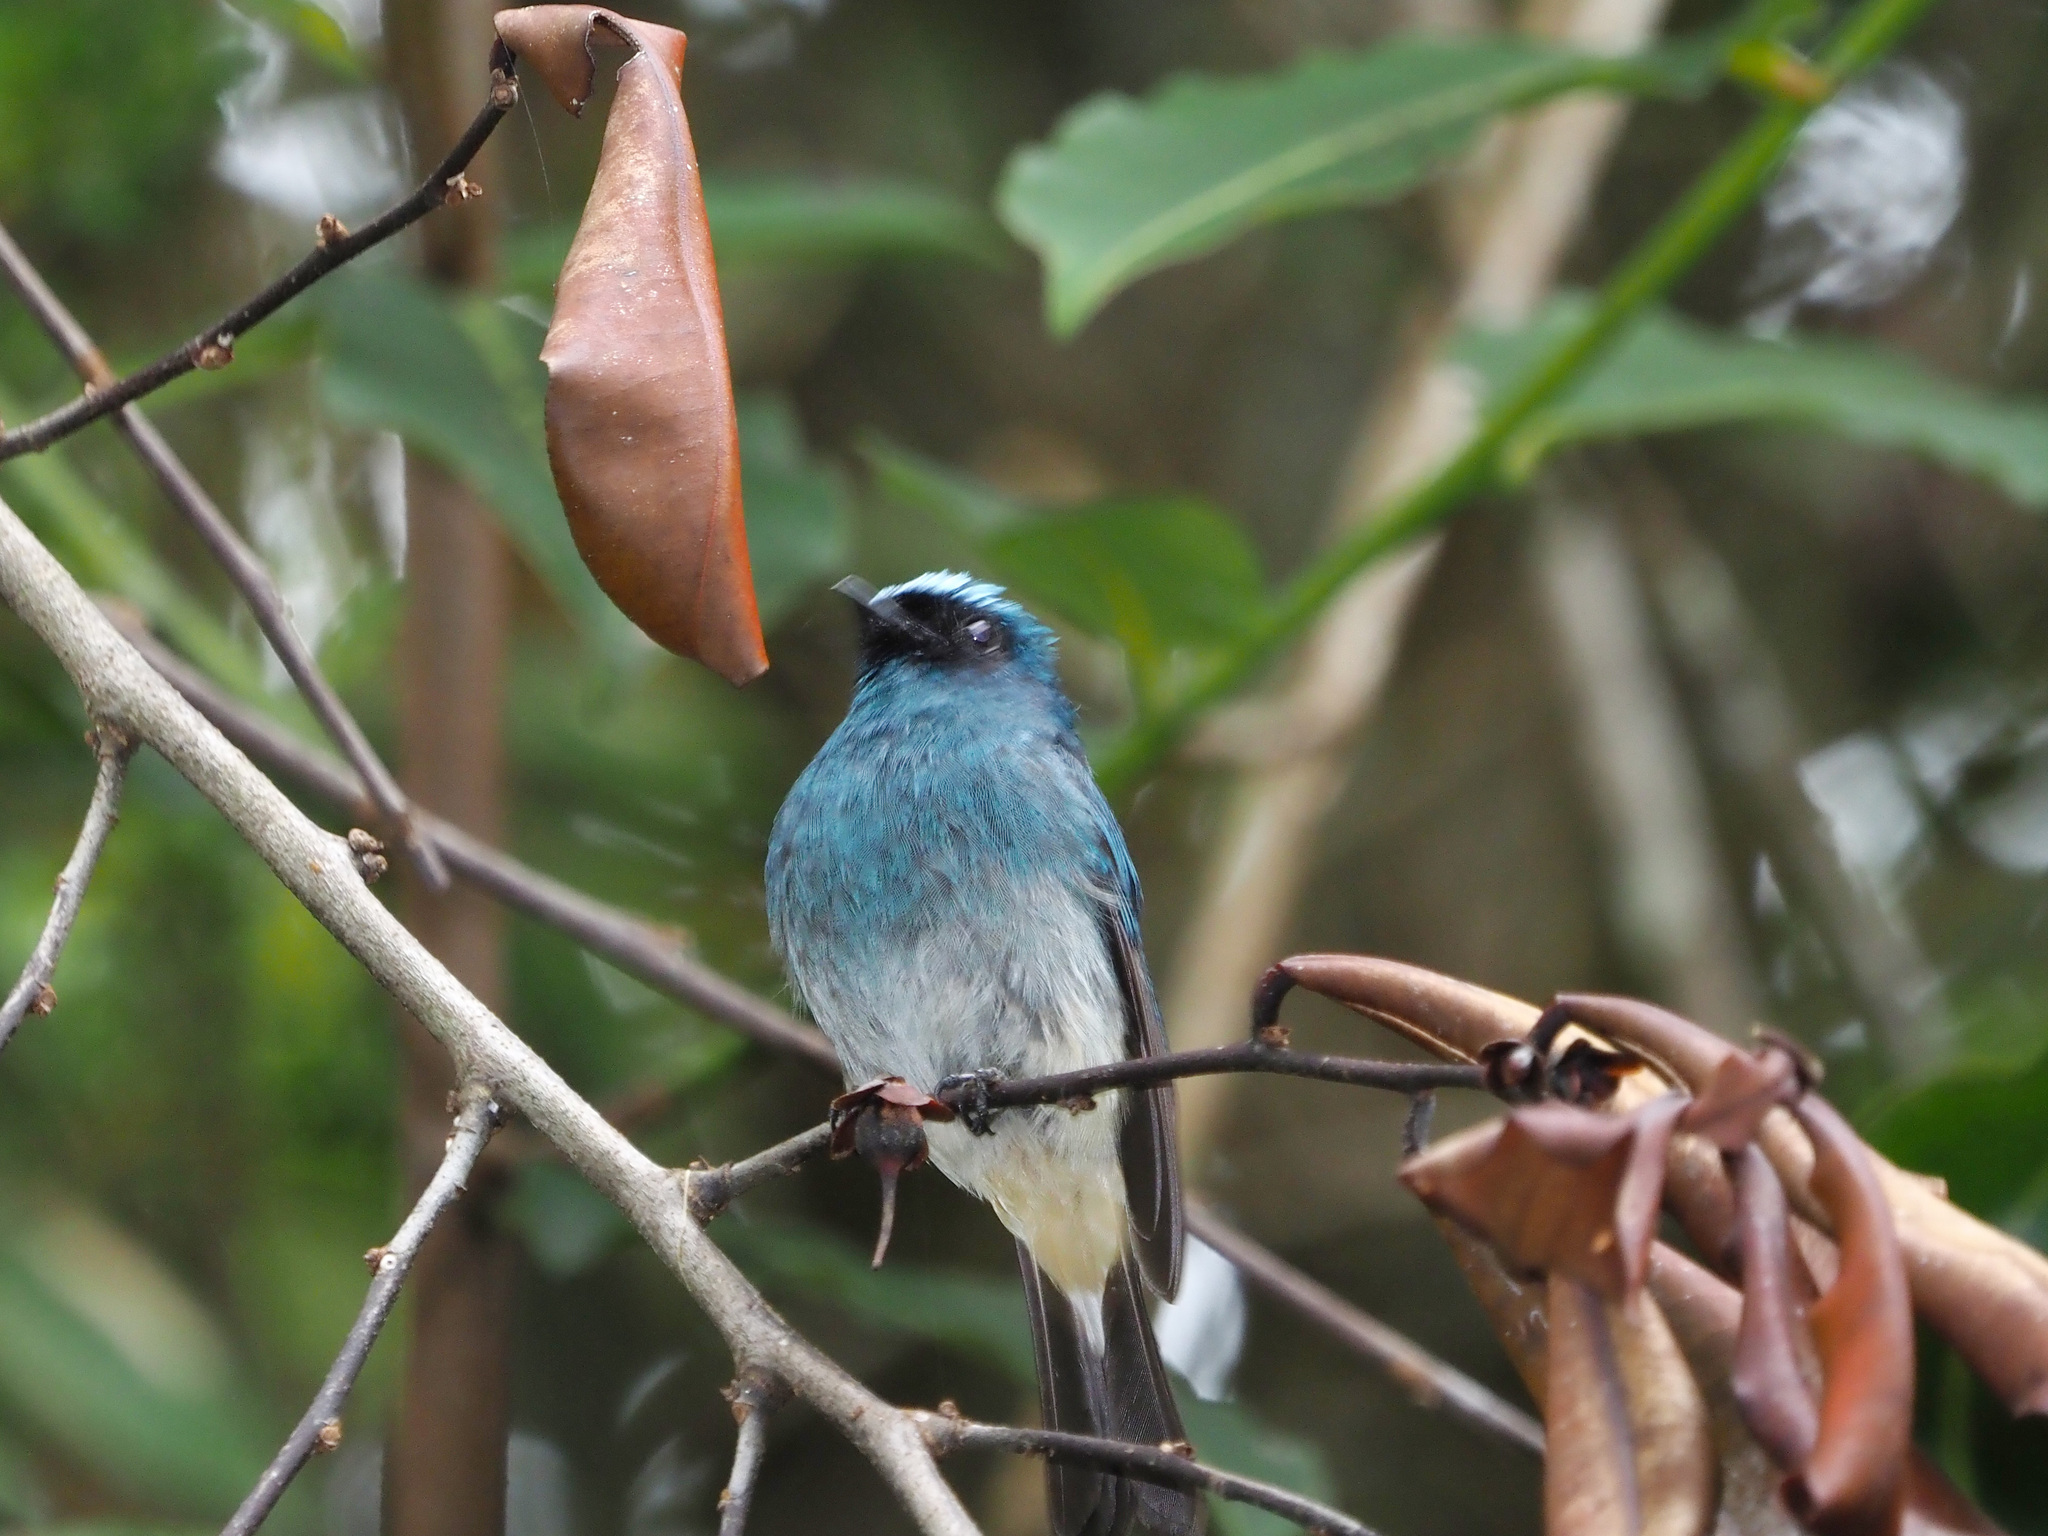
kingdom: Animalia
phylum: Chordata
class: Aves
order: Passeriformes
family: Muscicapidae
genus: Eumyias
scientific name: Eumyias indigo
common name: Indigo flycatcher
